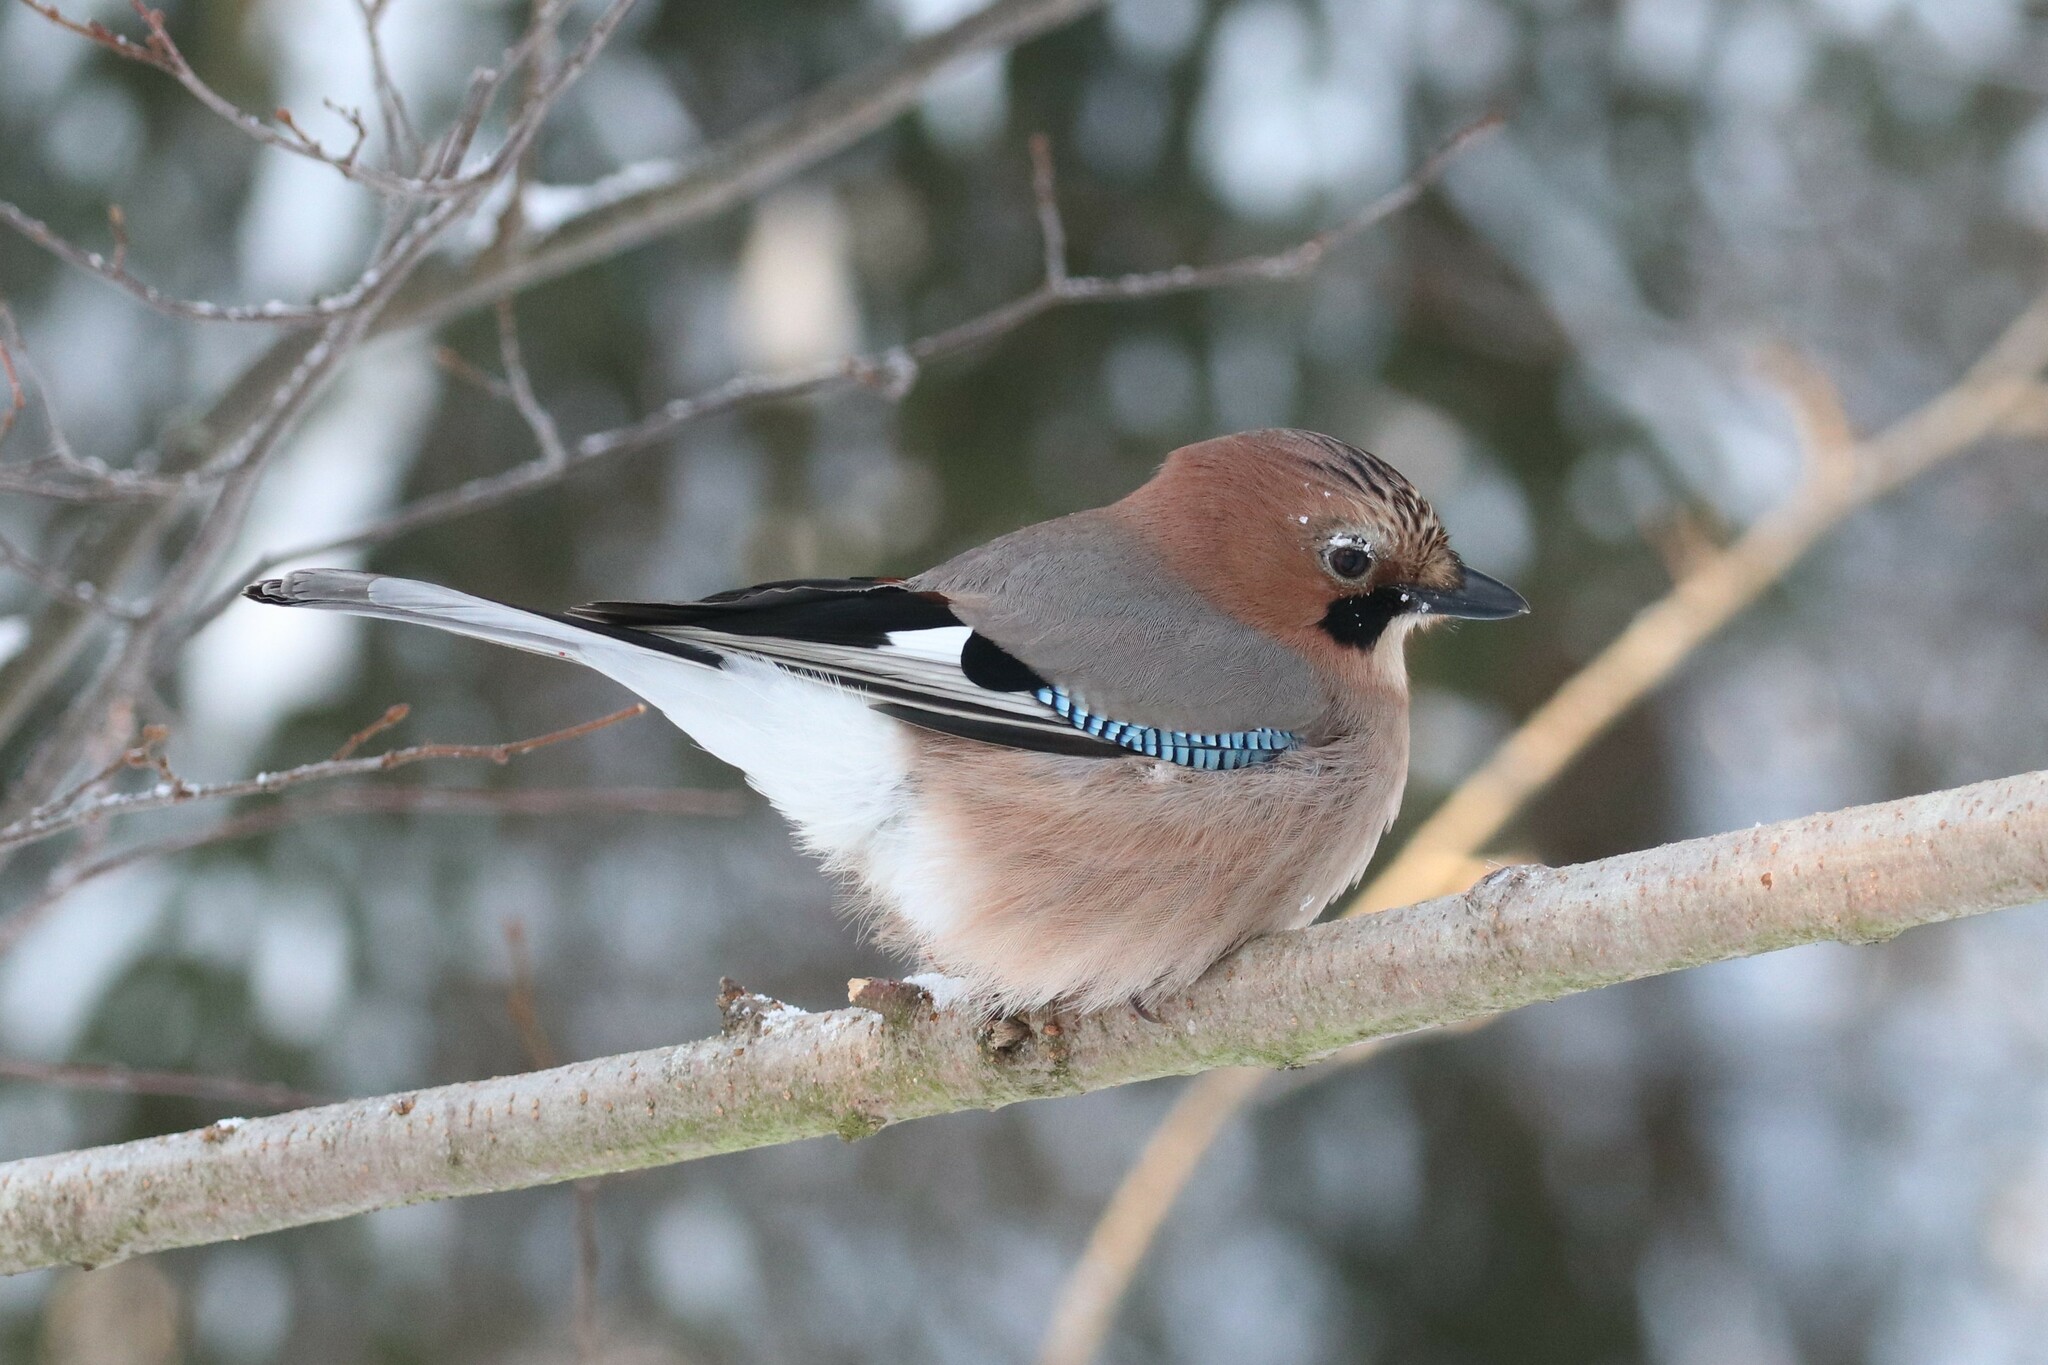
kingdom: Animalia
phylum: Chordata
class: Aves
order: Passeriformes
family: Corvidae
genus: Garrulus
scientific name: Garrulus glandarius
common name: Eurasian jay
